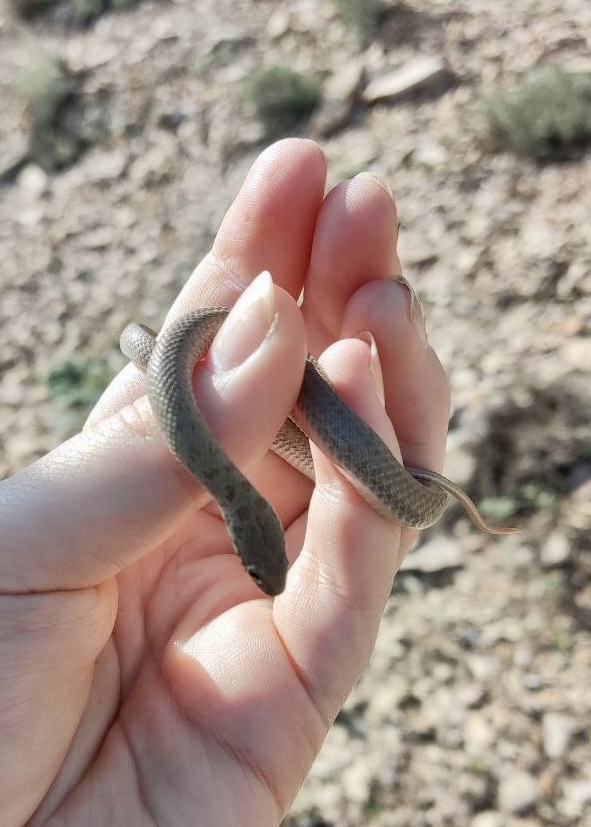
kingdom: Animalia
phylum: Chordata
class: Squamata
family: Colubridae
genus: Eirenis
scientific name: Eirenis punctatolineatus
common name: Dotted dwarf snake
